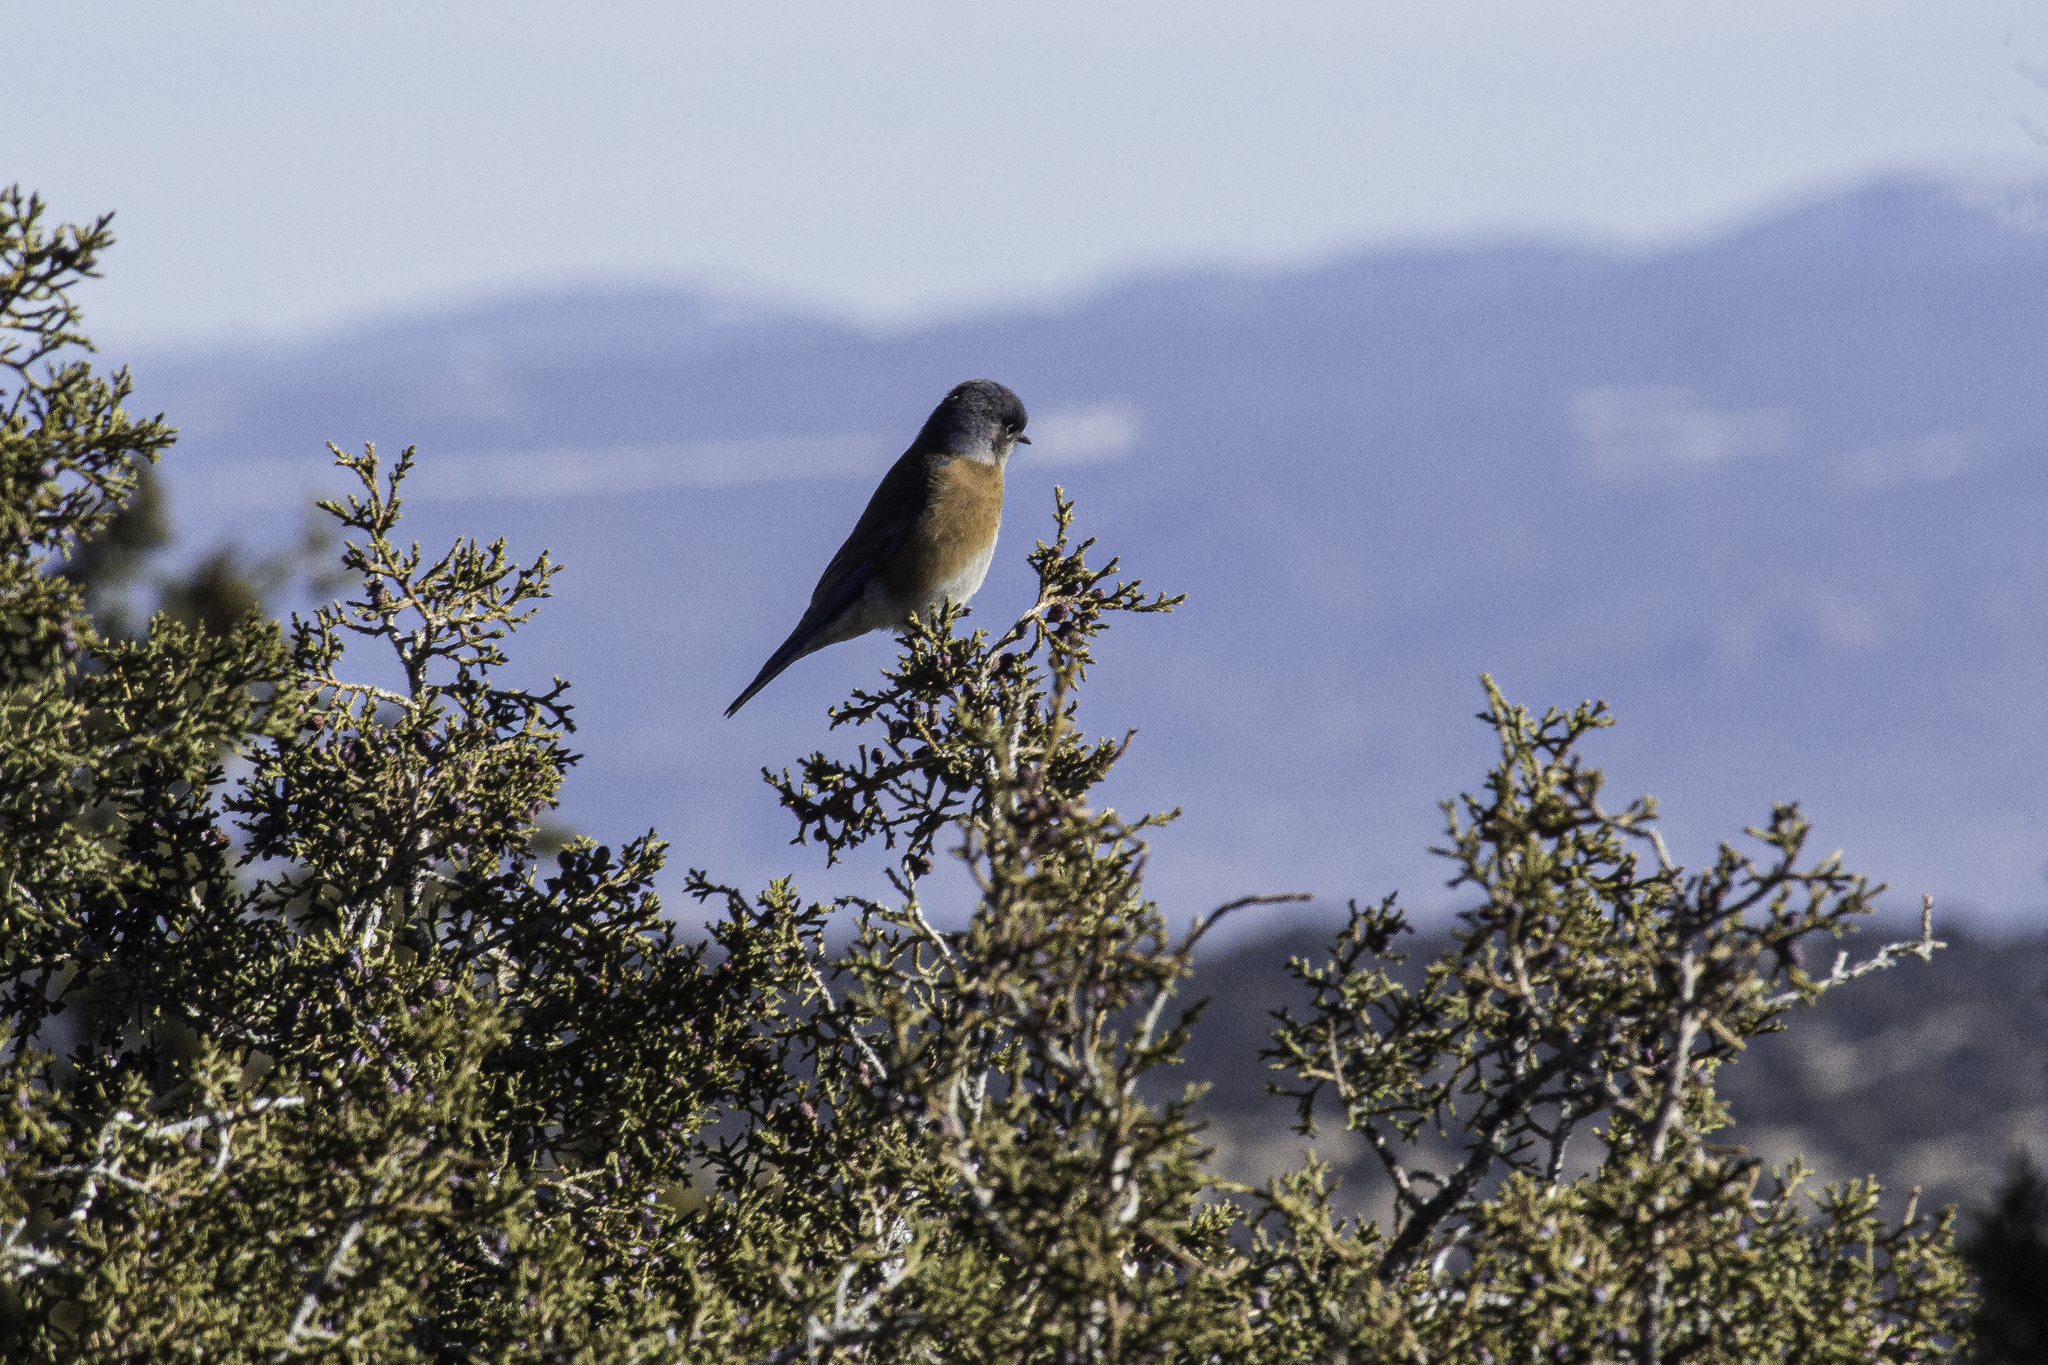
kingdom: Animalia
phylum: Chordata
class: Aves
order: Passeriformes
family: Turdidae
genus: Sialia
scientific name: Sialia mexicana
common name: Western bluebird
